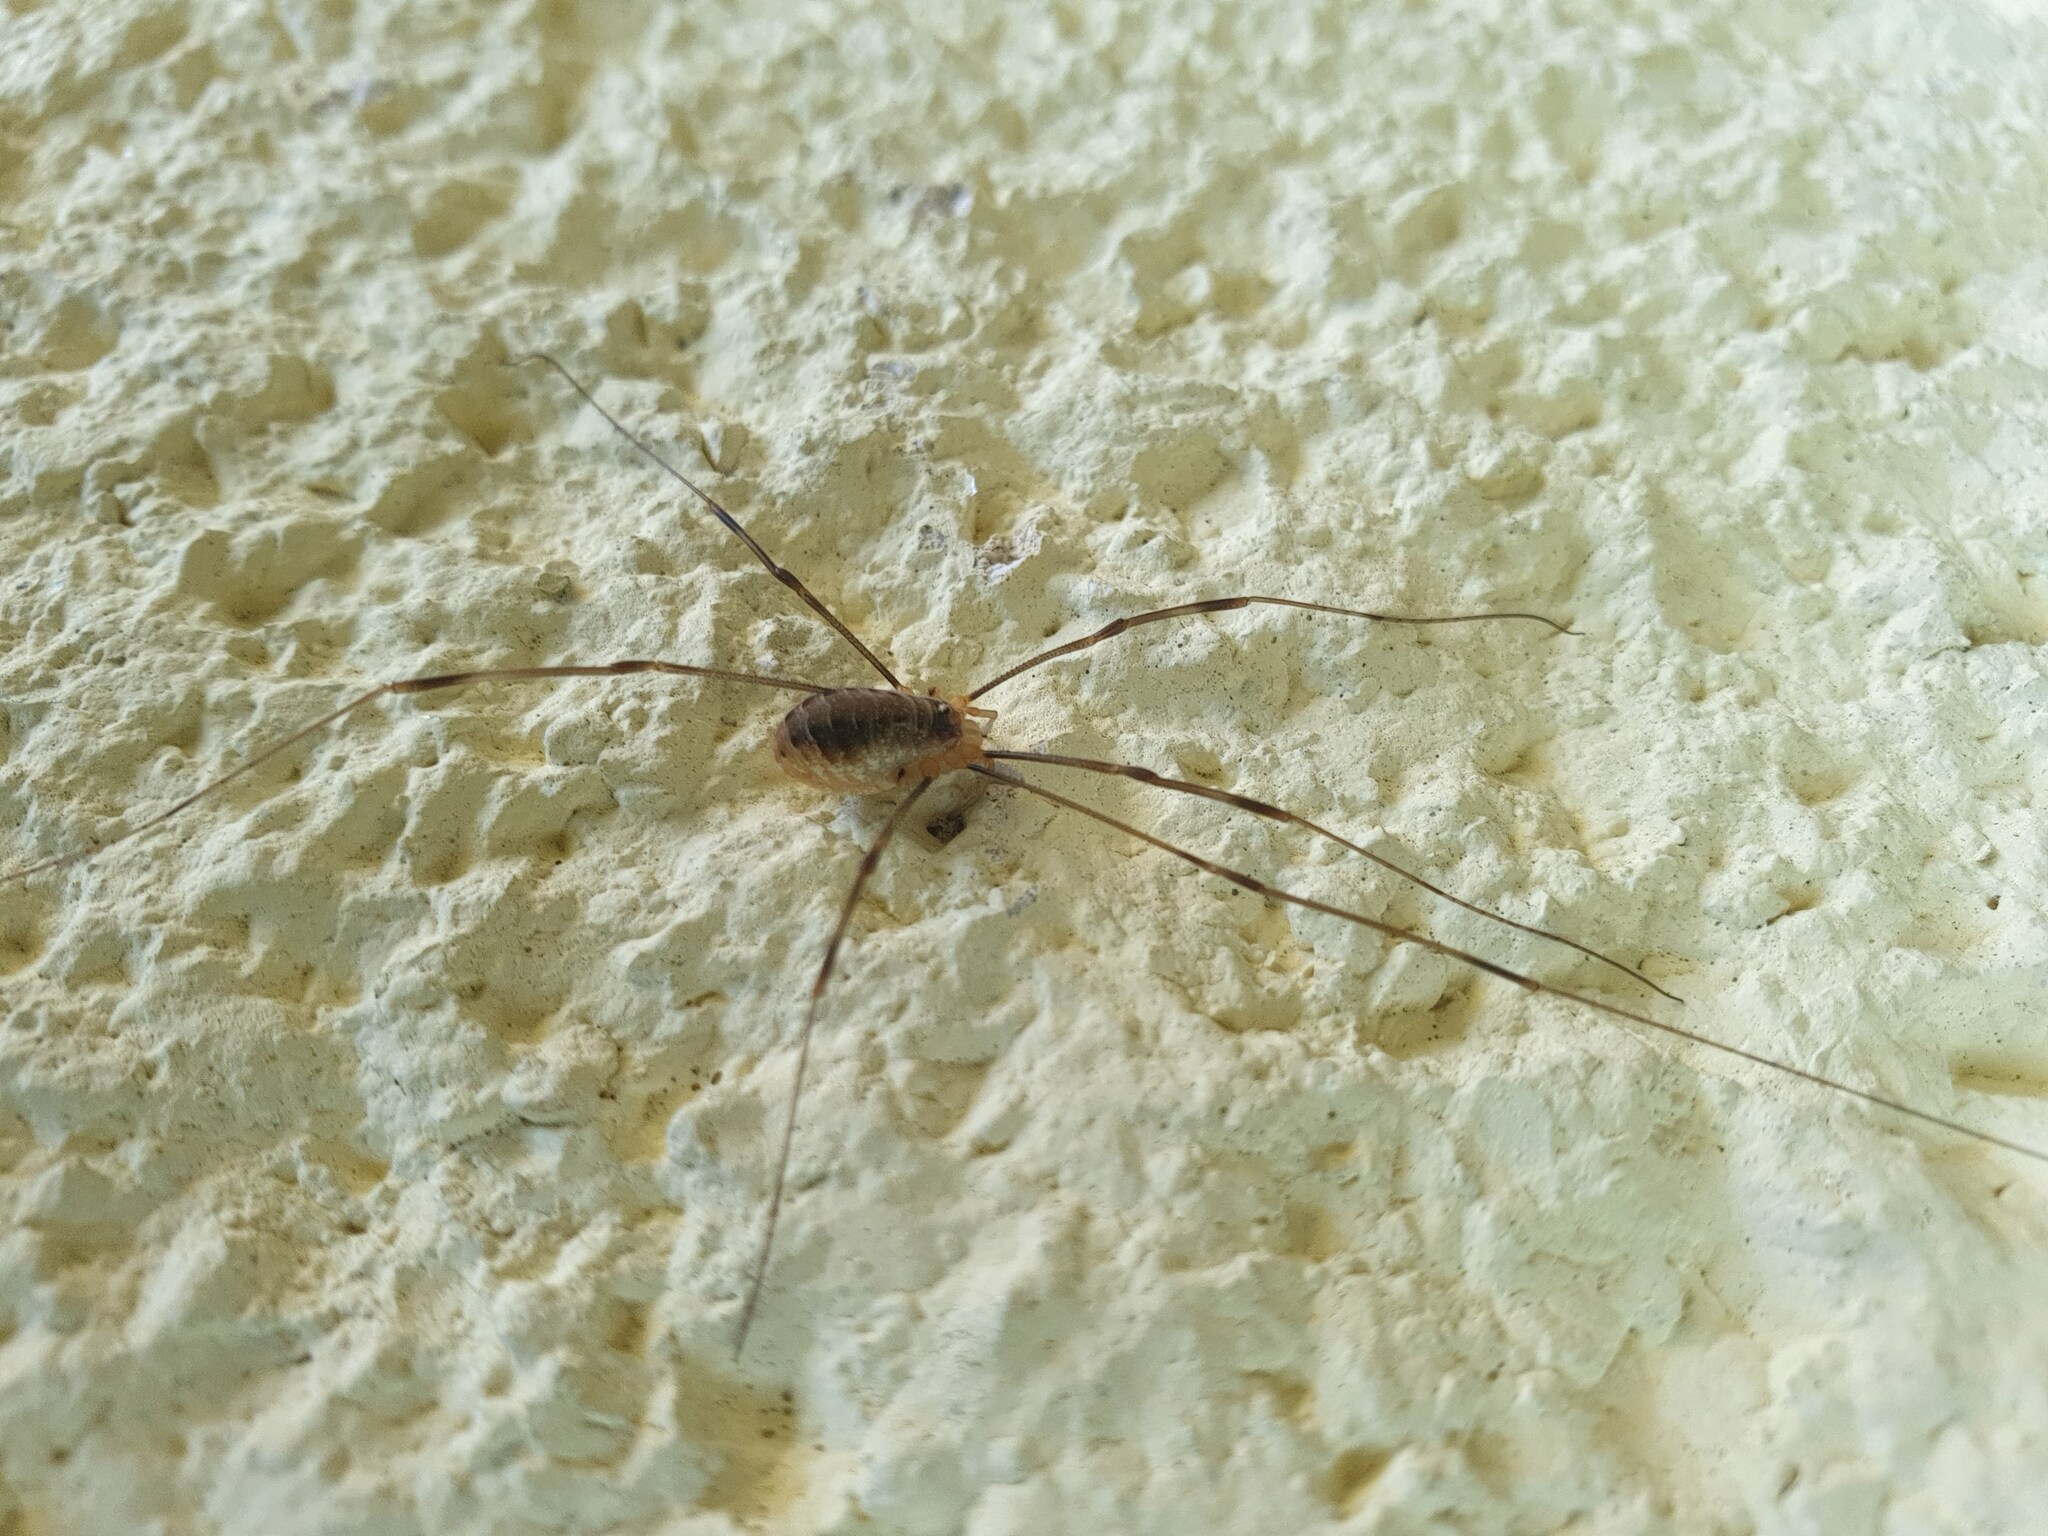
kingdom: Animalia
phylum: Arthropoda
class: Arachnida
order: Opiliones
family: Phalangiidae
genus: Opilio
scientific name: Opilio canestrinii
